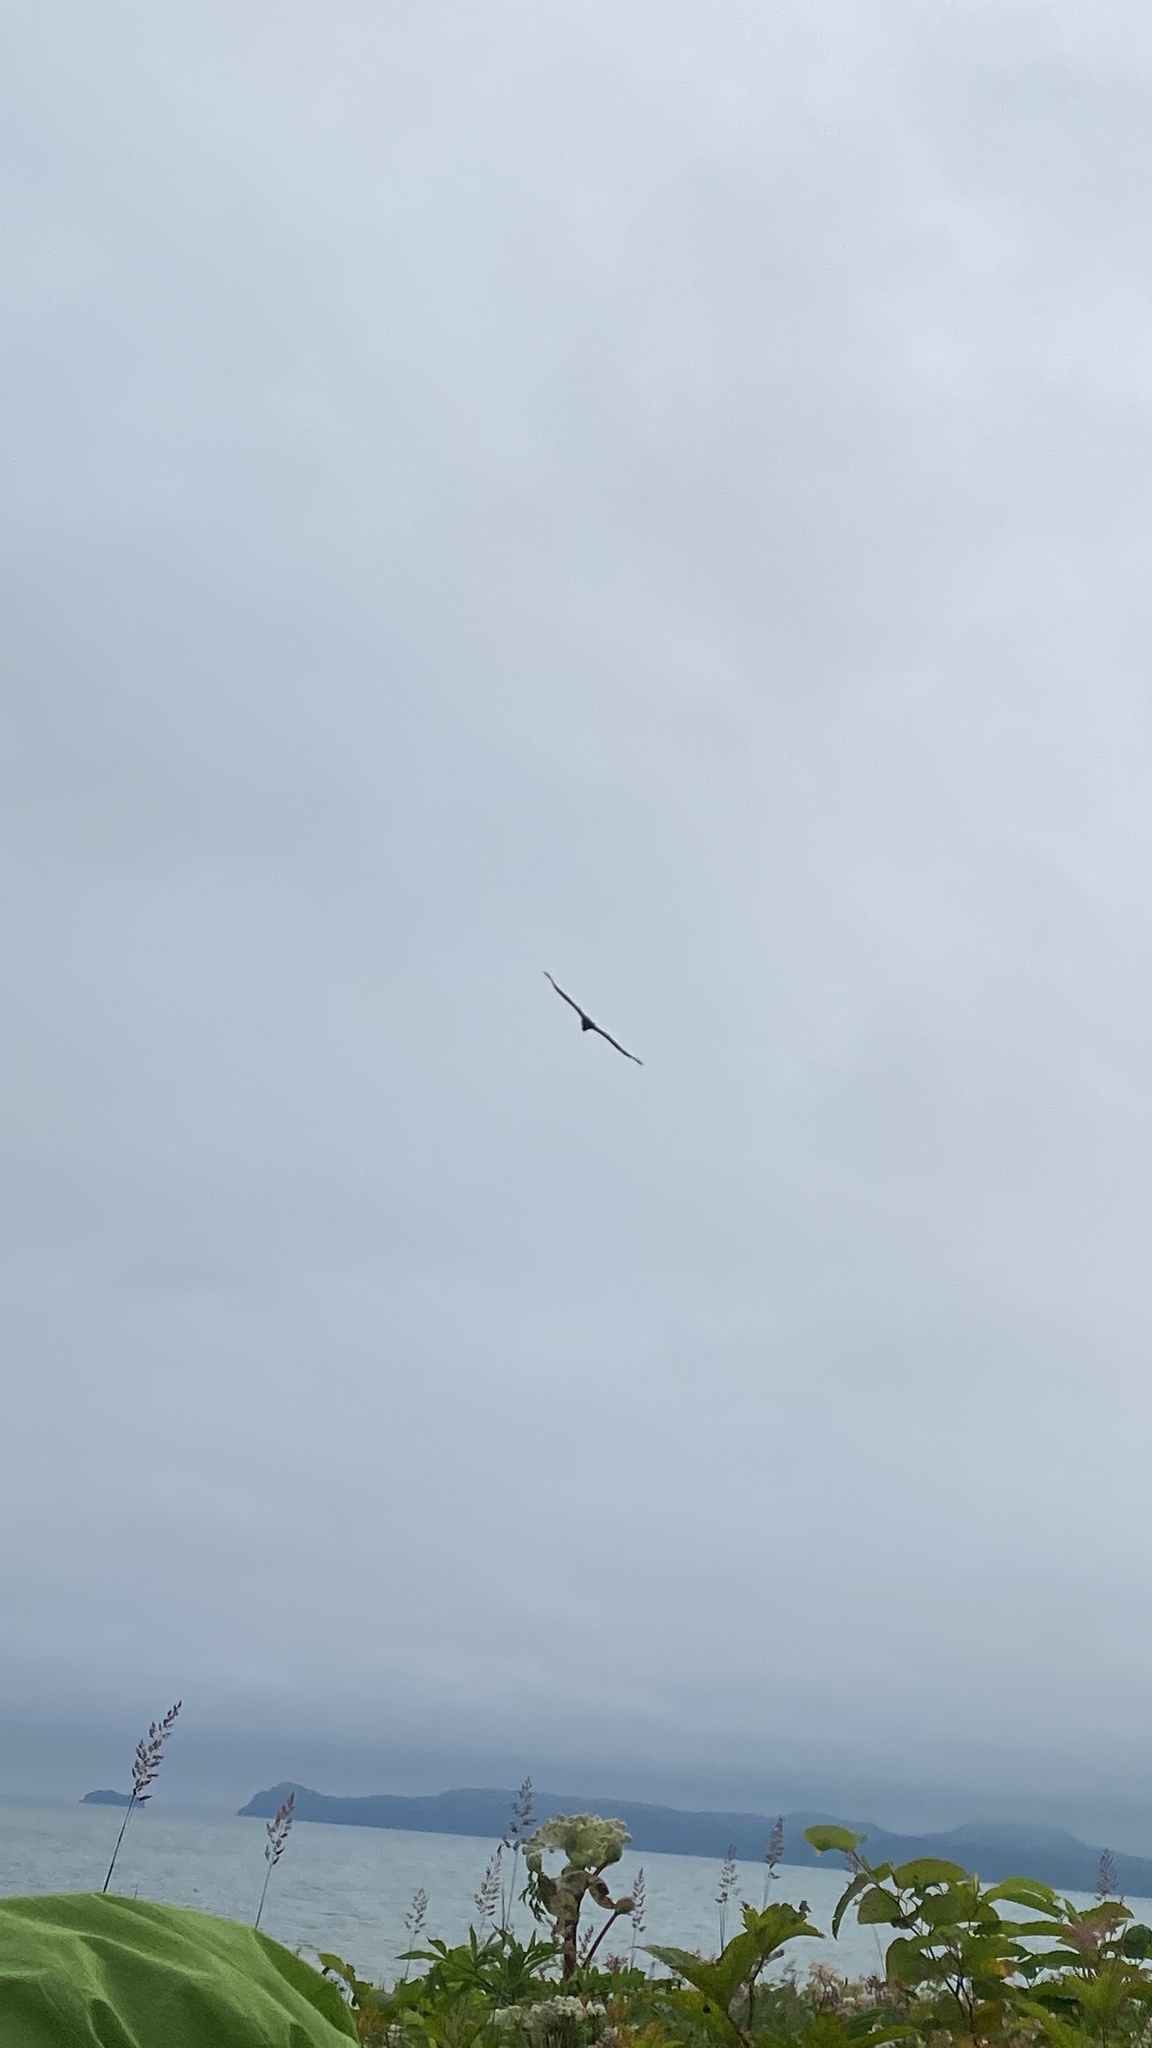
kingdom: Animalia
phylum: Chordata
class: Aves
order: Accipitriformes
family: Accipitridae
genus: Haliaeetus
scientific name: Haliaeetus albicilla
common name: White-tailed eagle
